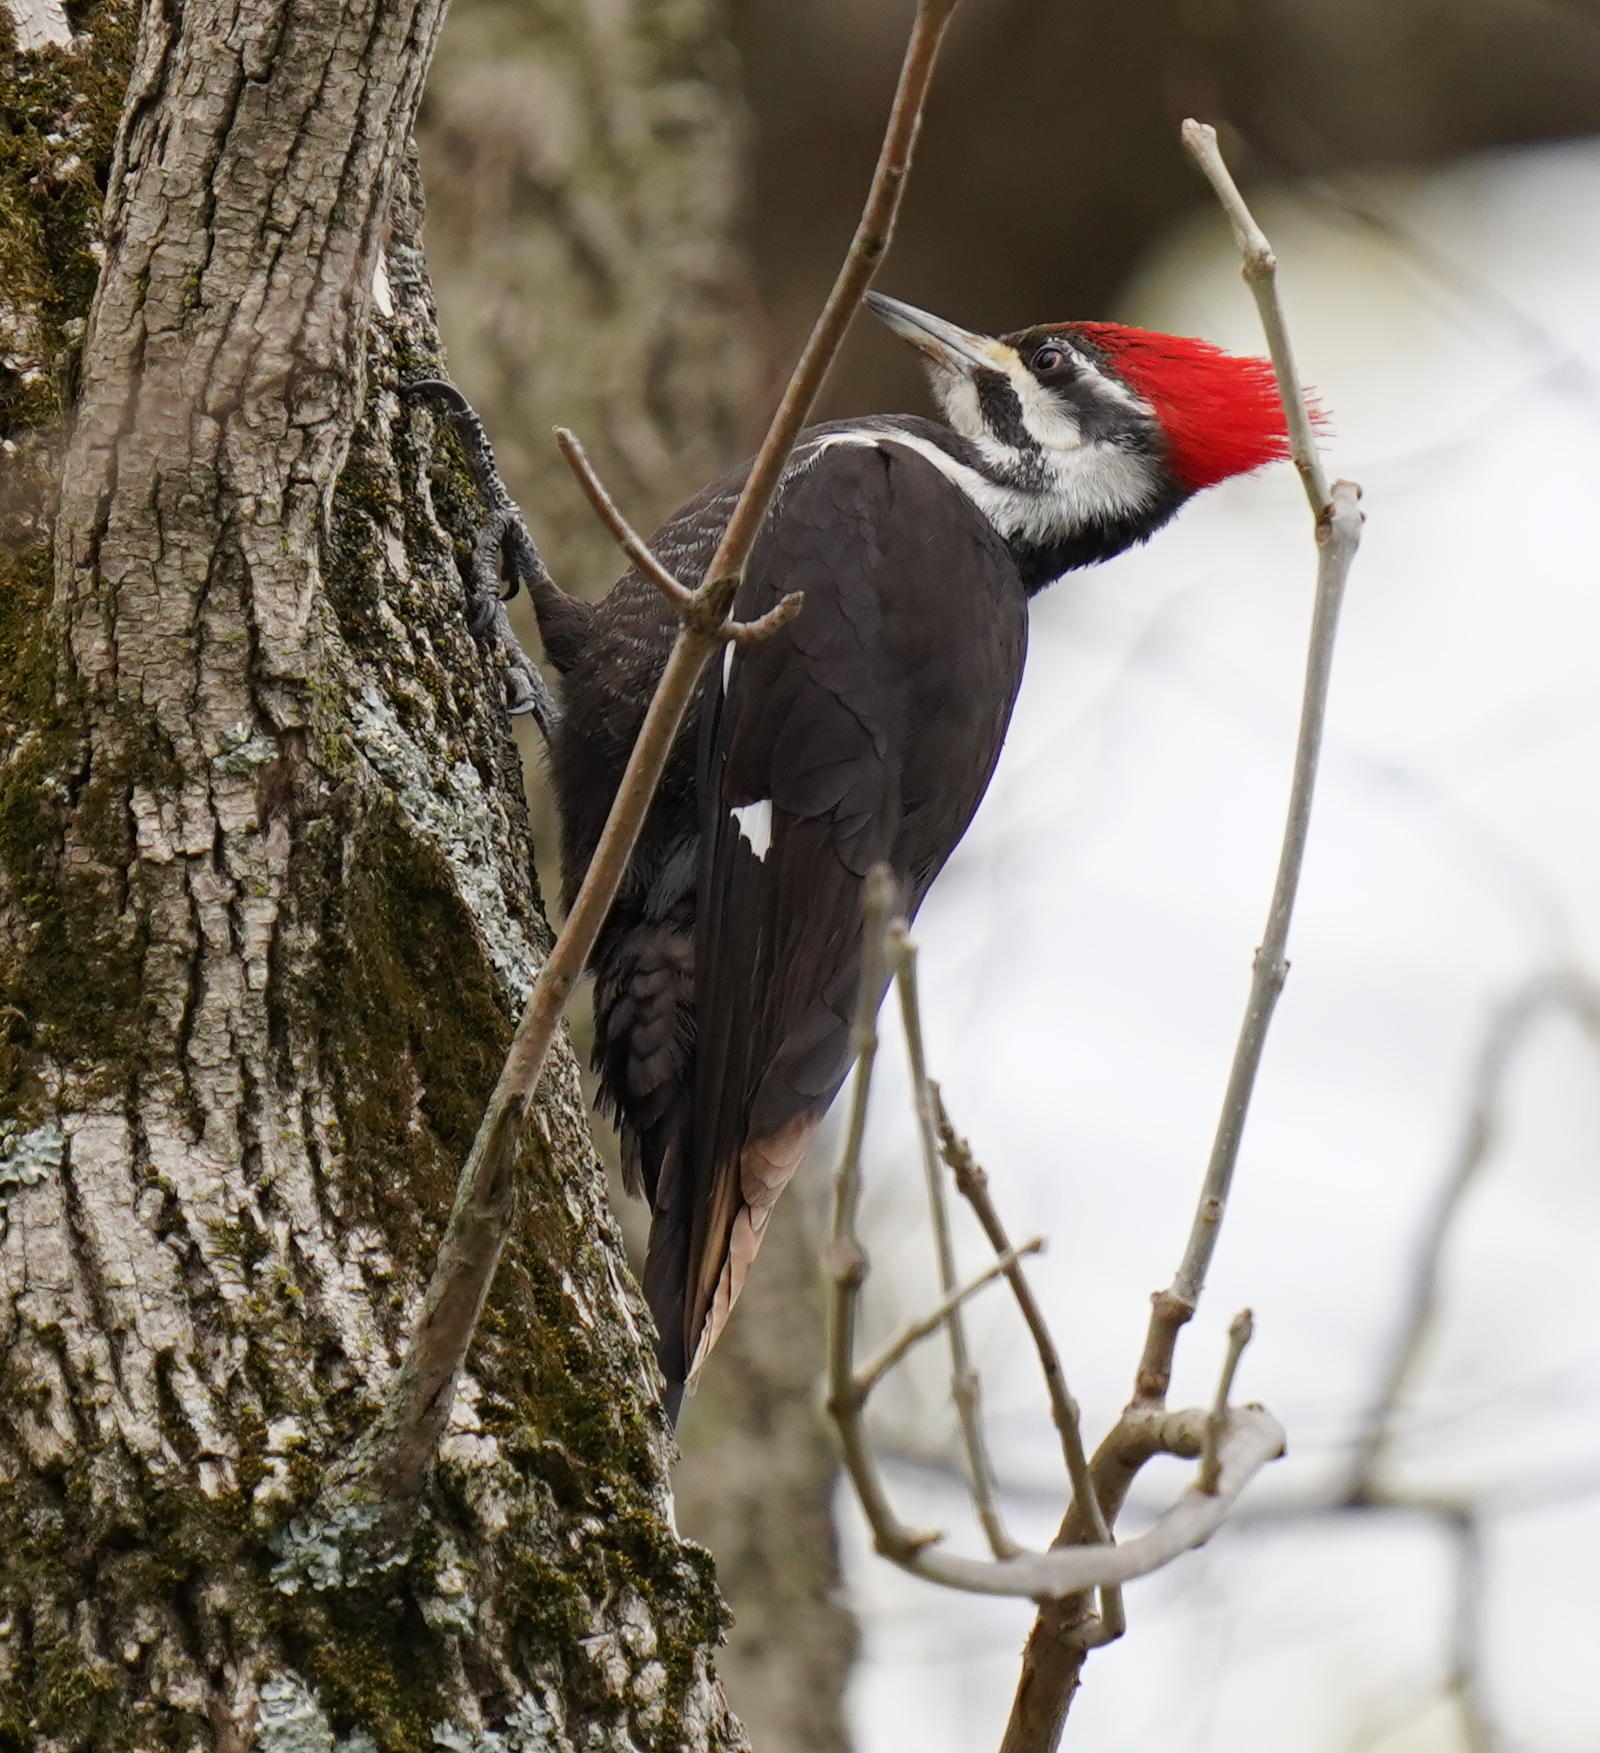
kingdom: Animalia
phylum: Chordata
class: Aves
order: Piciformes
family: Picidae
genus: Dryocopus
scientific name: Dryocopus pileatus
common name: Pileated woodpecker
